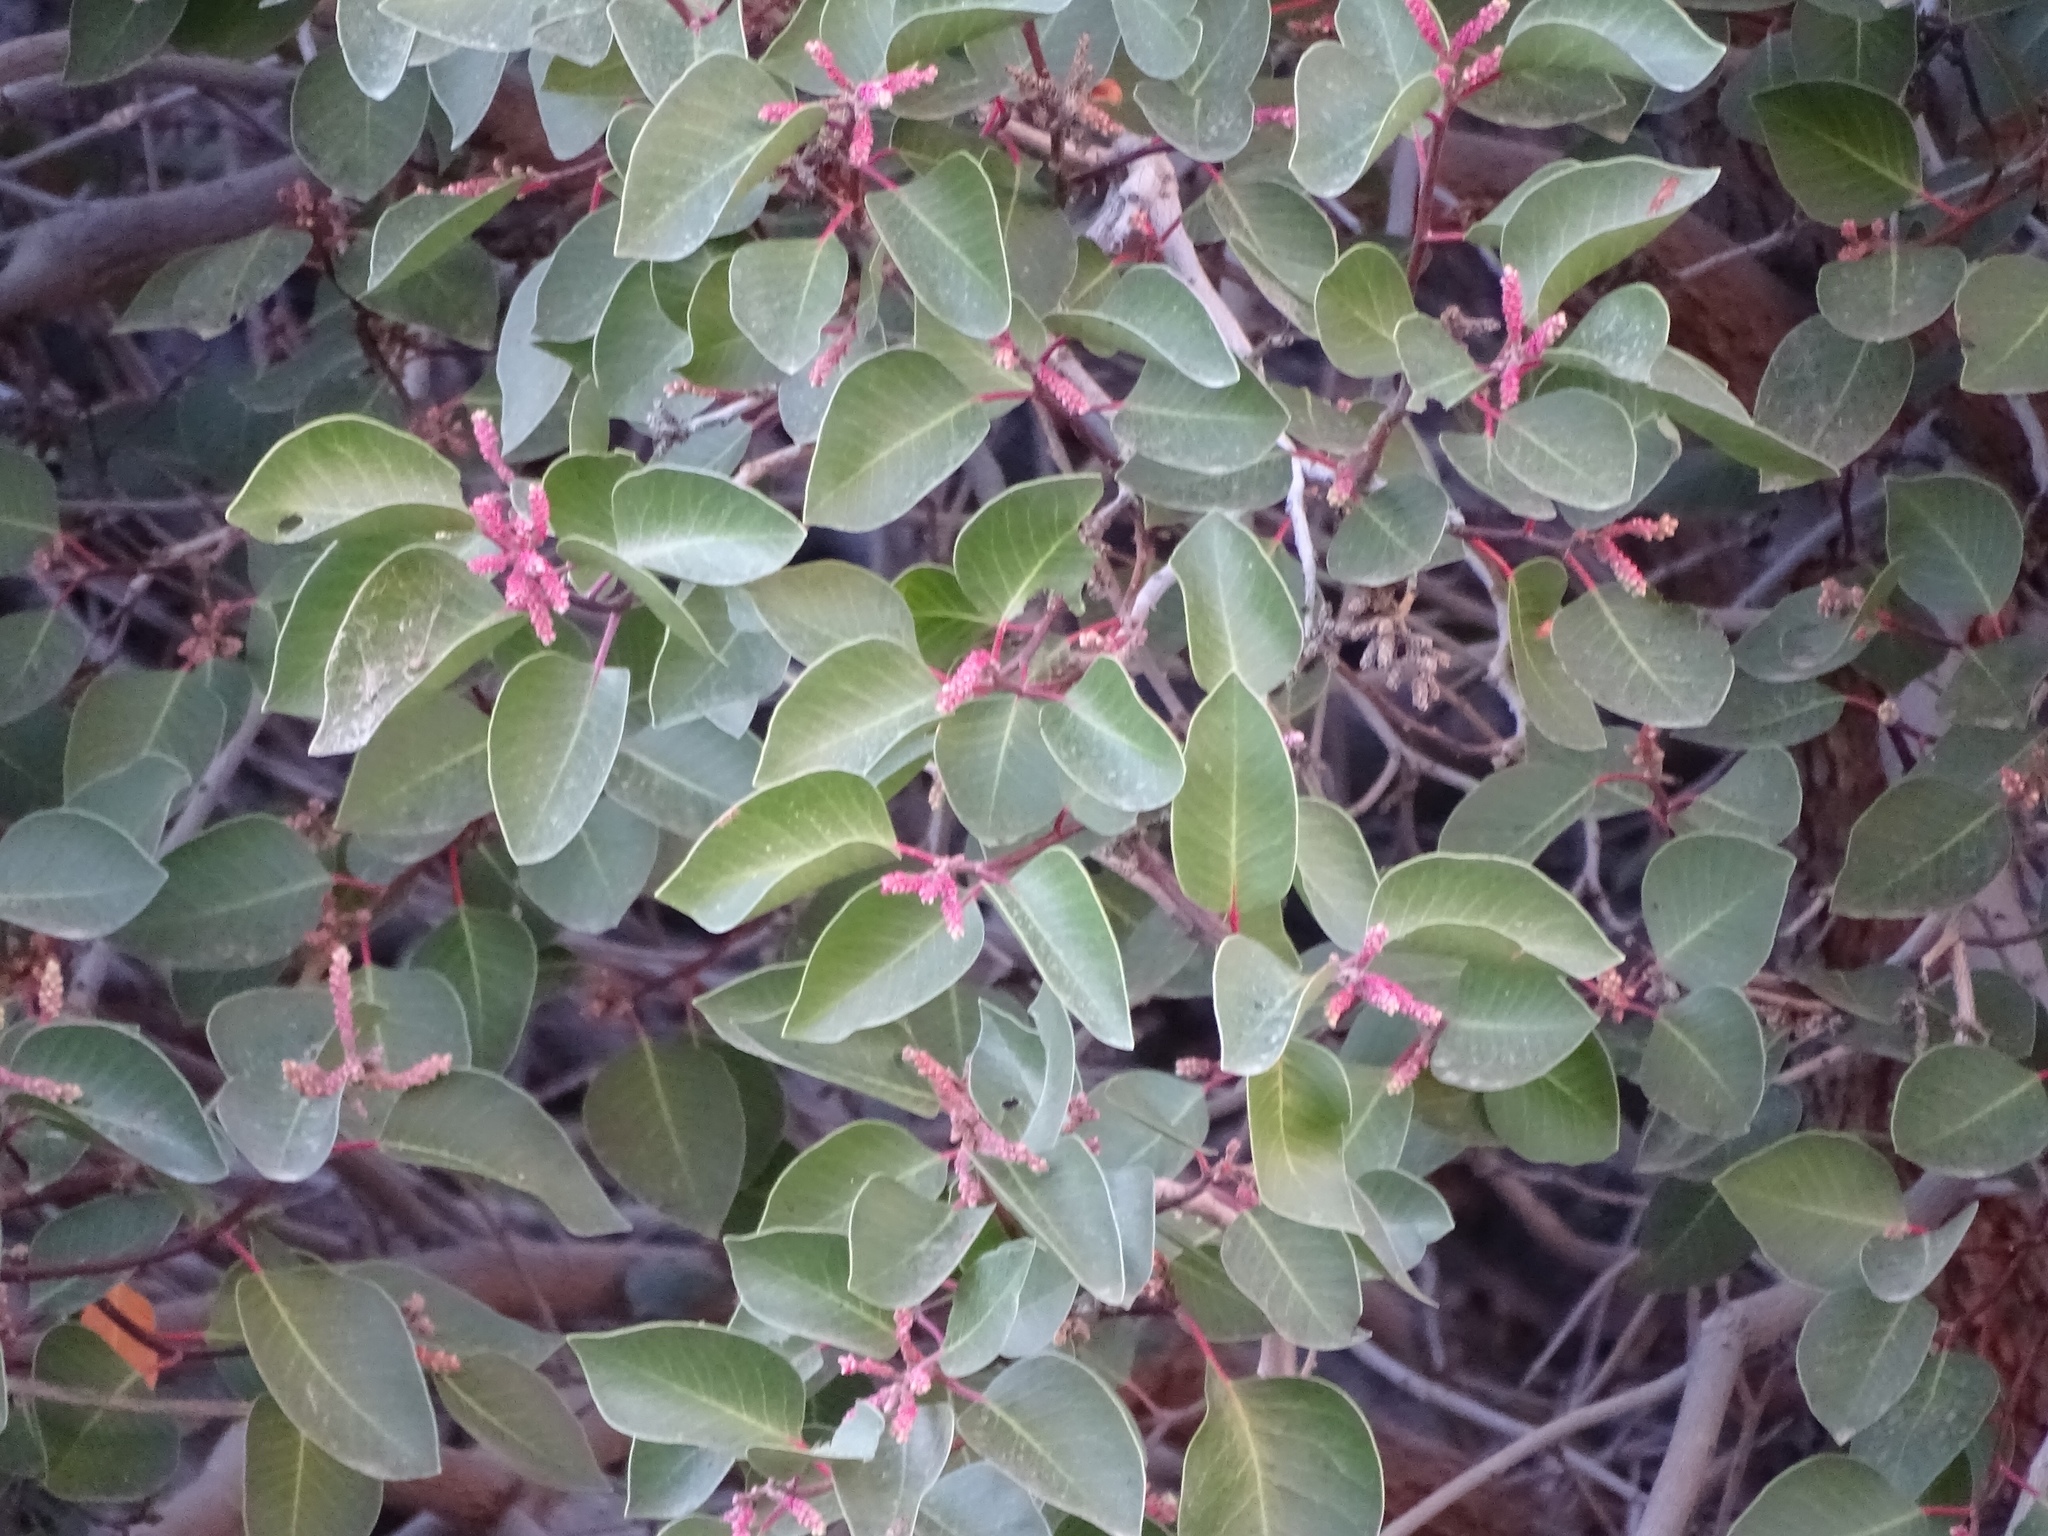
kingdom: Plantae
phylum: Tracheophyta
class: Magnoliopsida
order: Sapindales
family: Anacardiaceae
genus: Rhus
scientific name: Rhus ovata
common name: Sugar sumac
